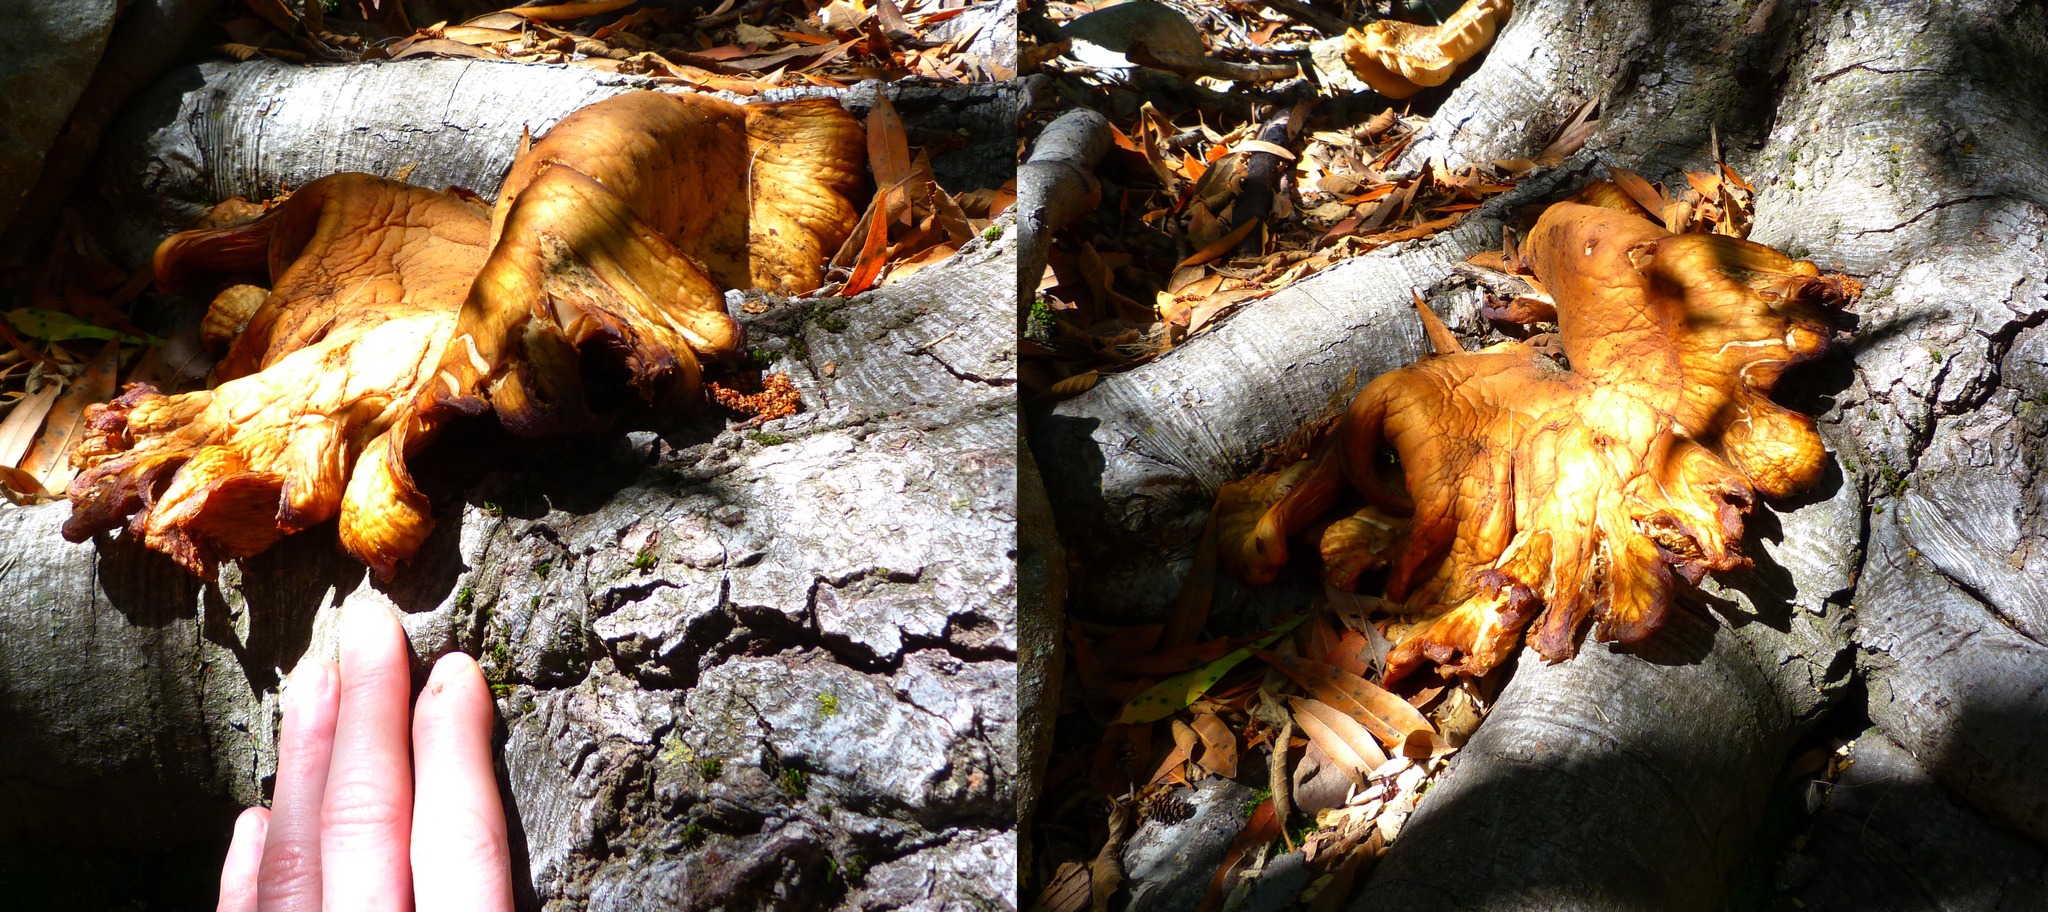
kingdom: Fungi
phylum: Basidiomycota
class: Agaricomycetes
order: Agaricales
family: Omphalotaceae
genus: Omphalotus
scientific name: Omphalotus olivascens
